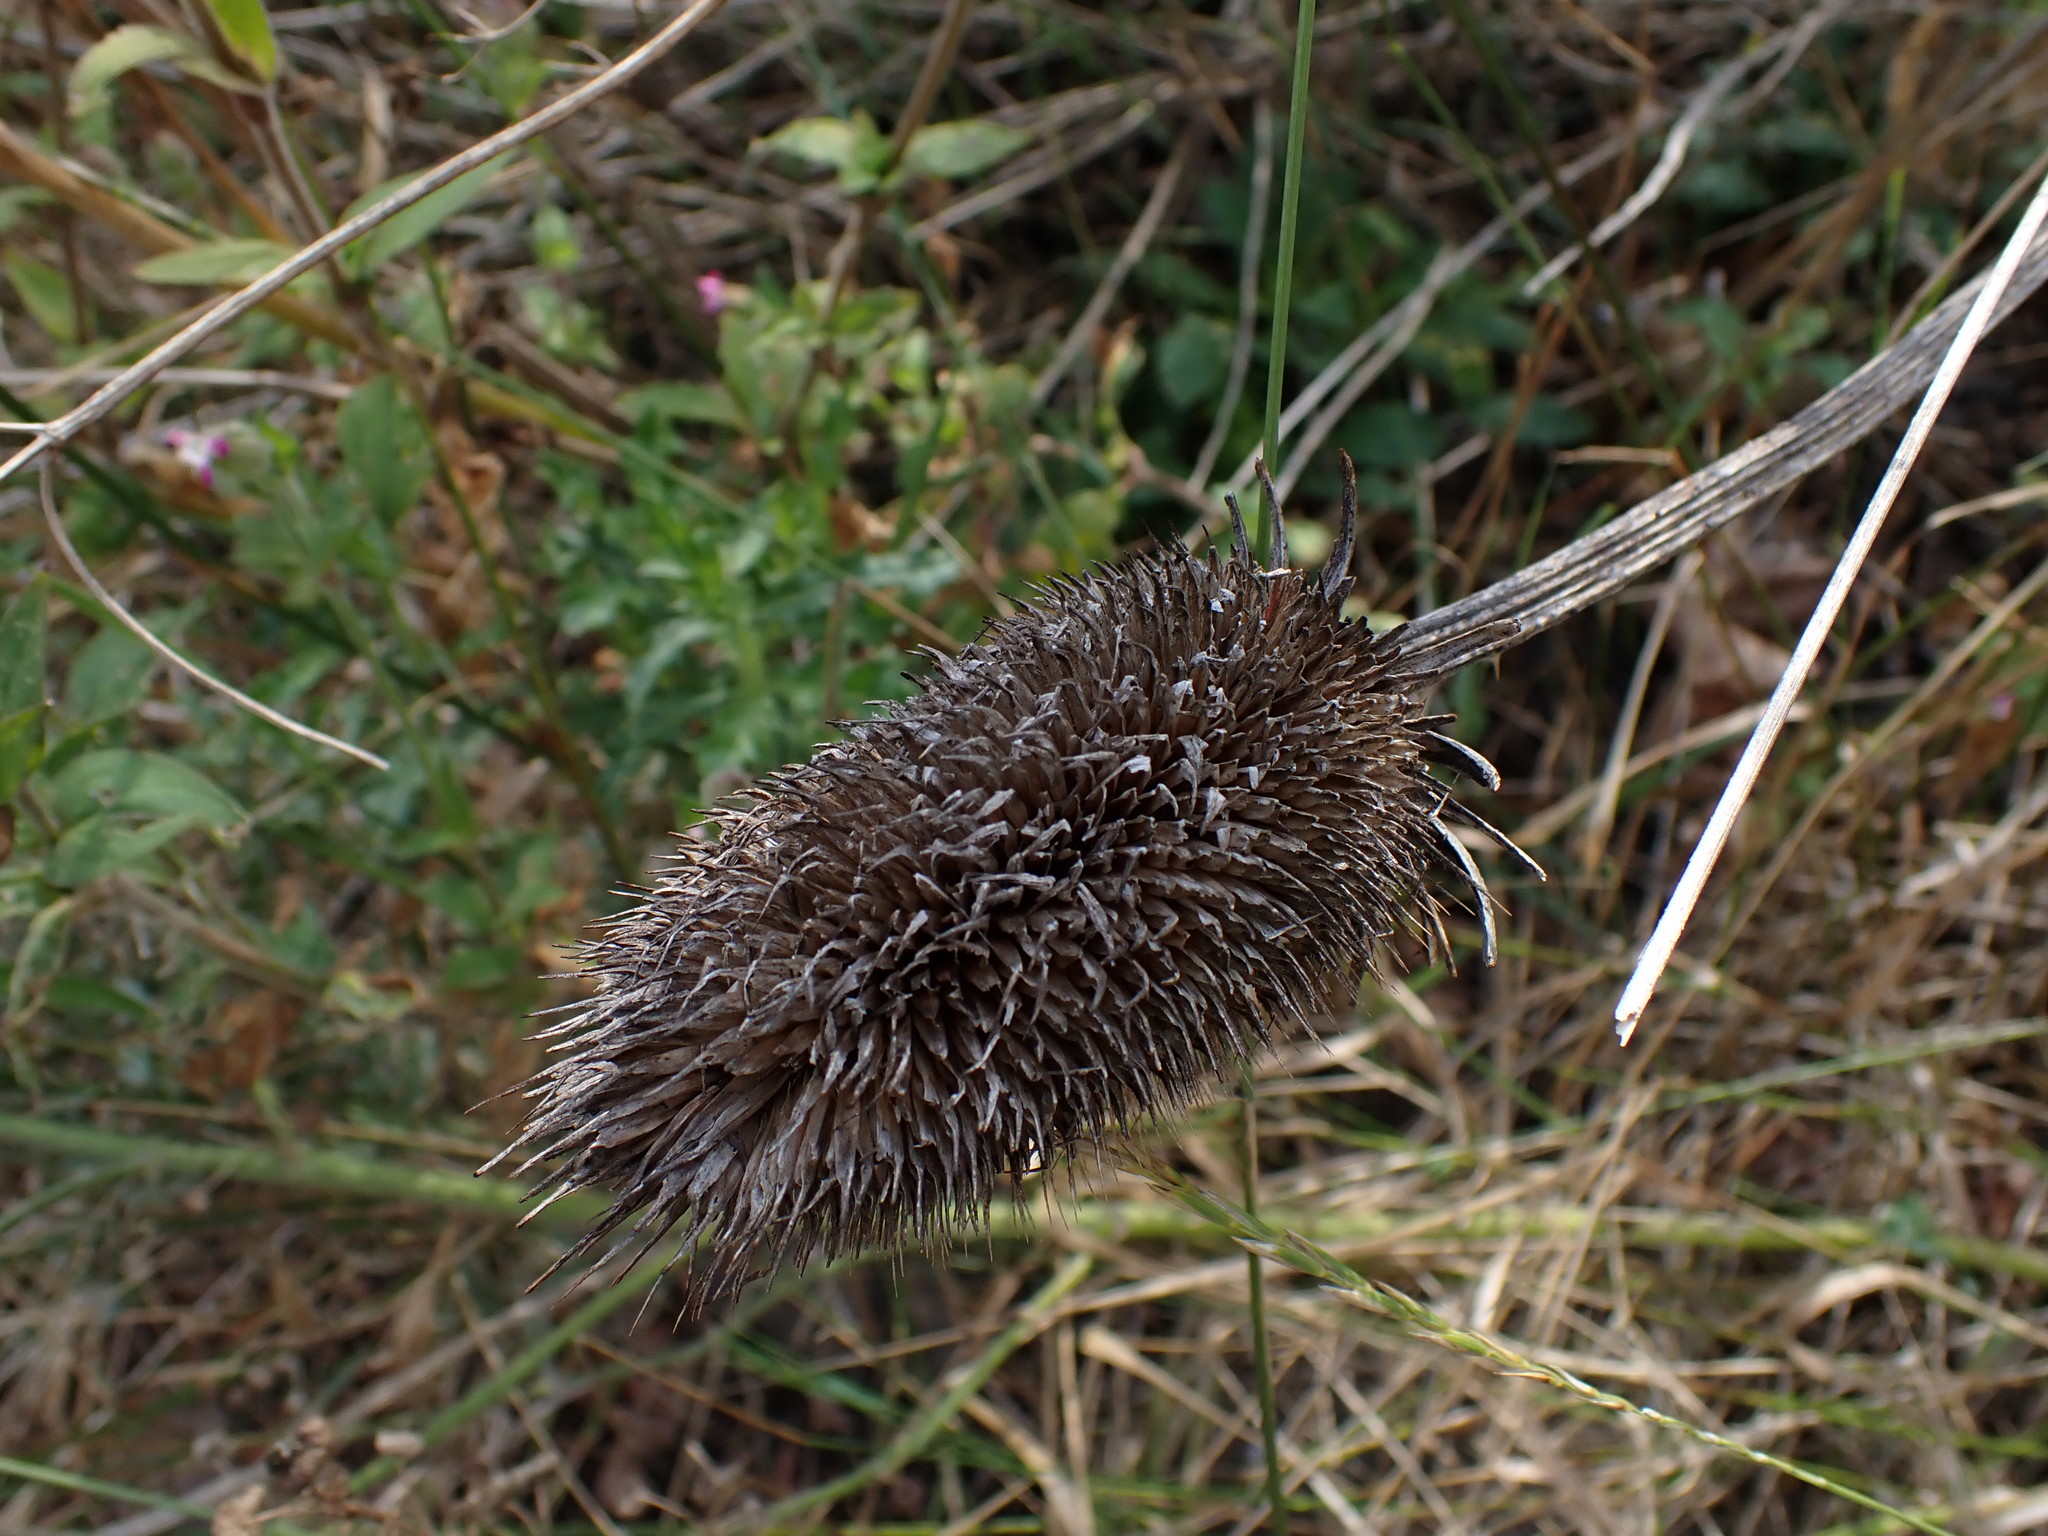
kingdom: Plantae
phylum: Tracheophyta
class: Magnoliopsida
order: Dipsacales
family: Caprifoliaceae
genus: Dipsacus
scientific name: Dipsacus fullonum
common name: Teasel
